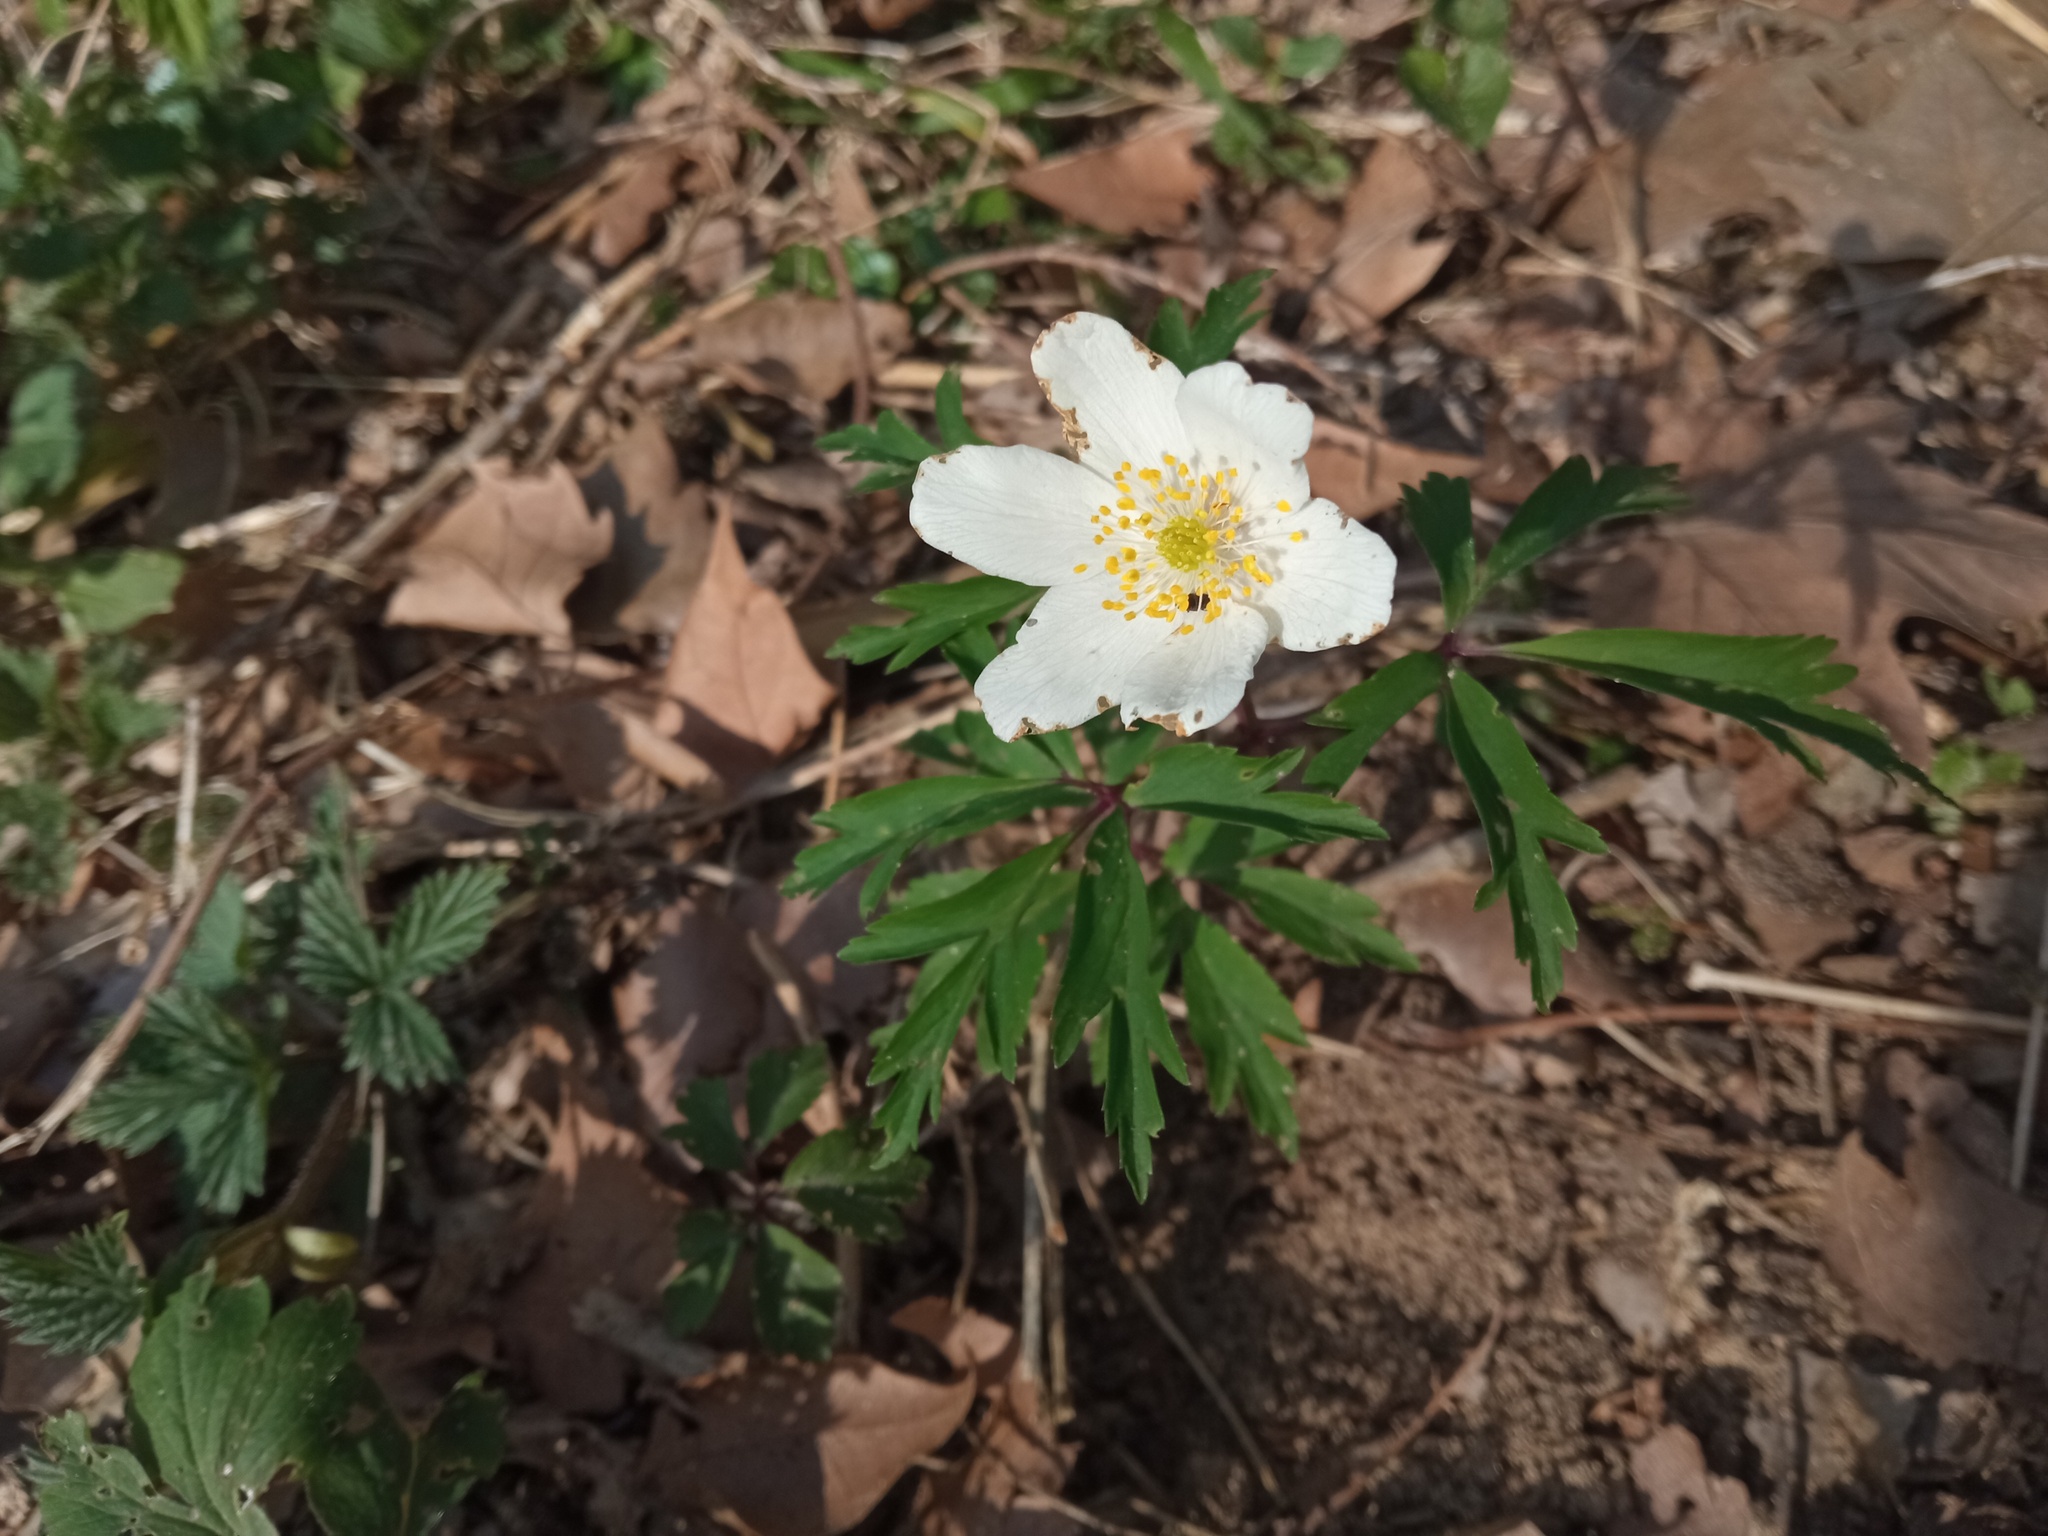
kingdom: Plantae
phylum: Tracheophyta
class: Magnoliopsida
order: Ranunculales
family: Ranunculaceae
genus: Anemone
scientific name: Anemone nemorosa
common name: Wood anemone
